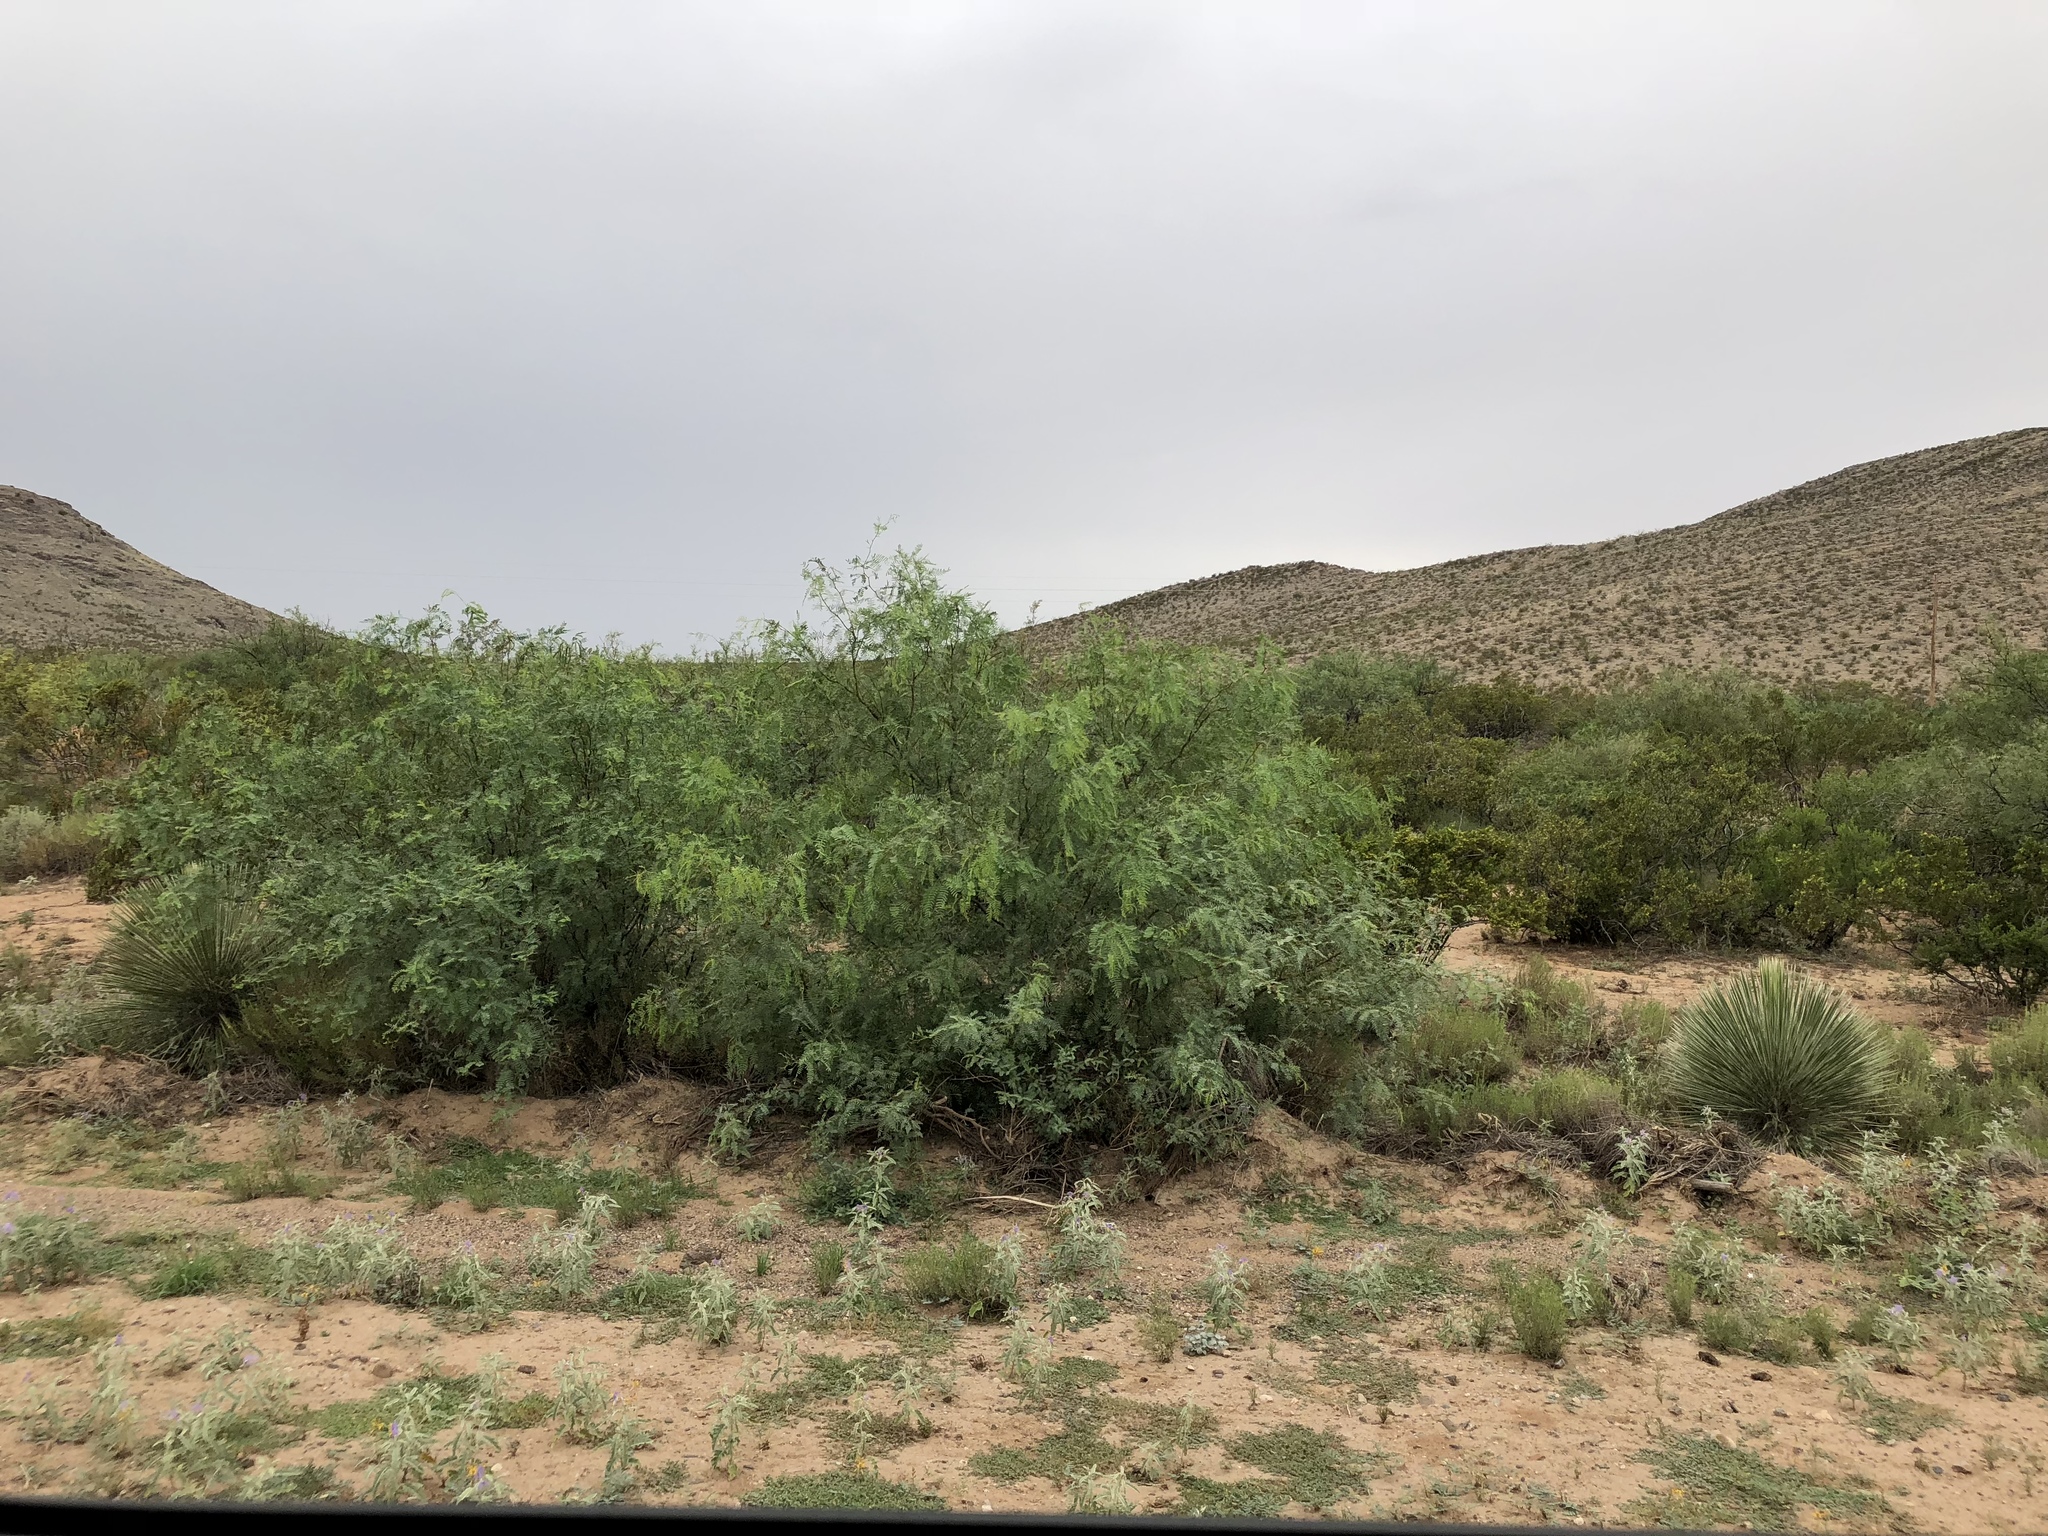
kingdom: Plantae
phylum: Tracheophyta
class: Magnoliopsida
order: Fabales
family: Fabaceae
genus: Prosopis
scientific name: Prosopis glandulosa
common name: Honey mesquite
